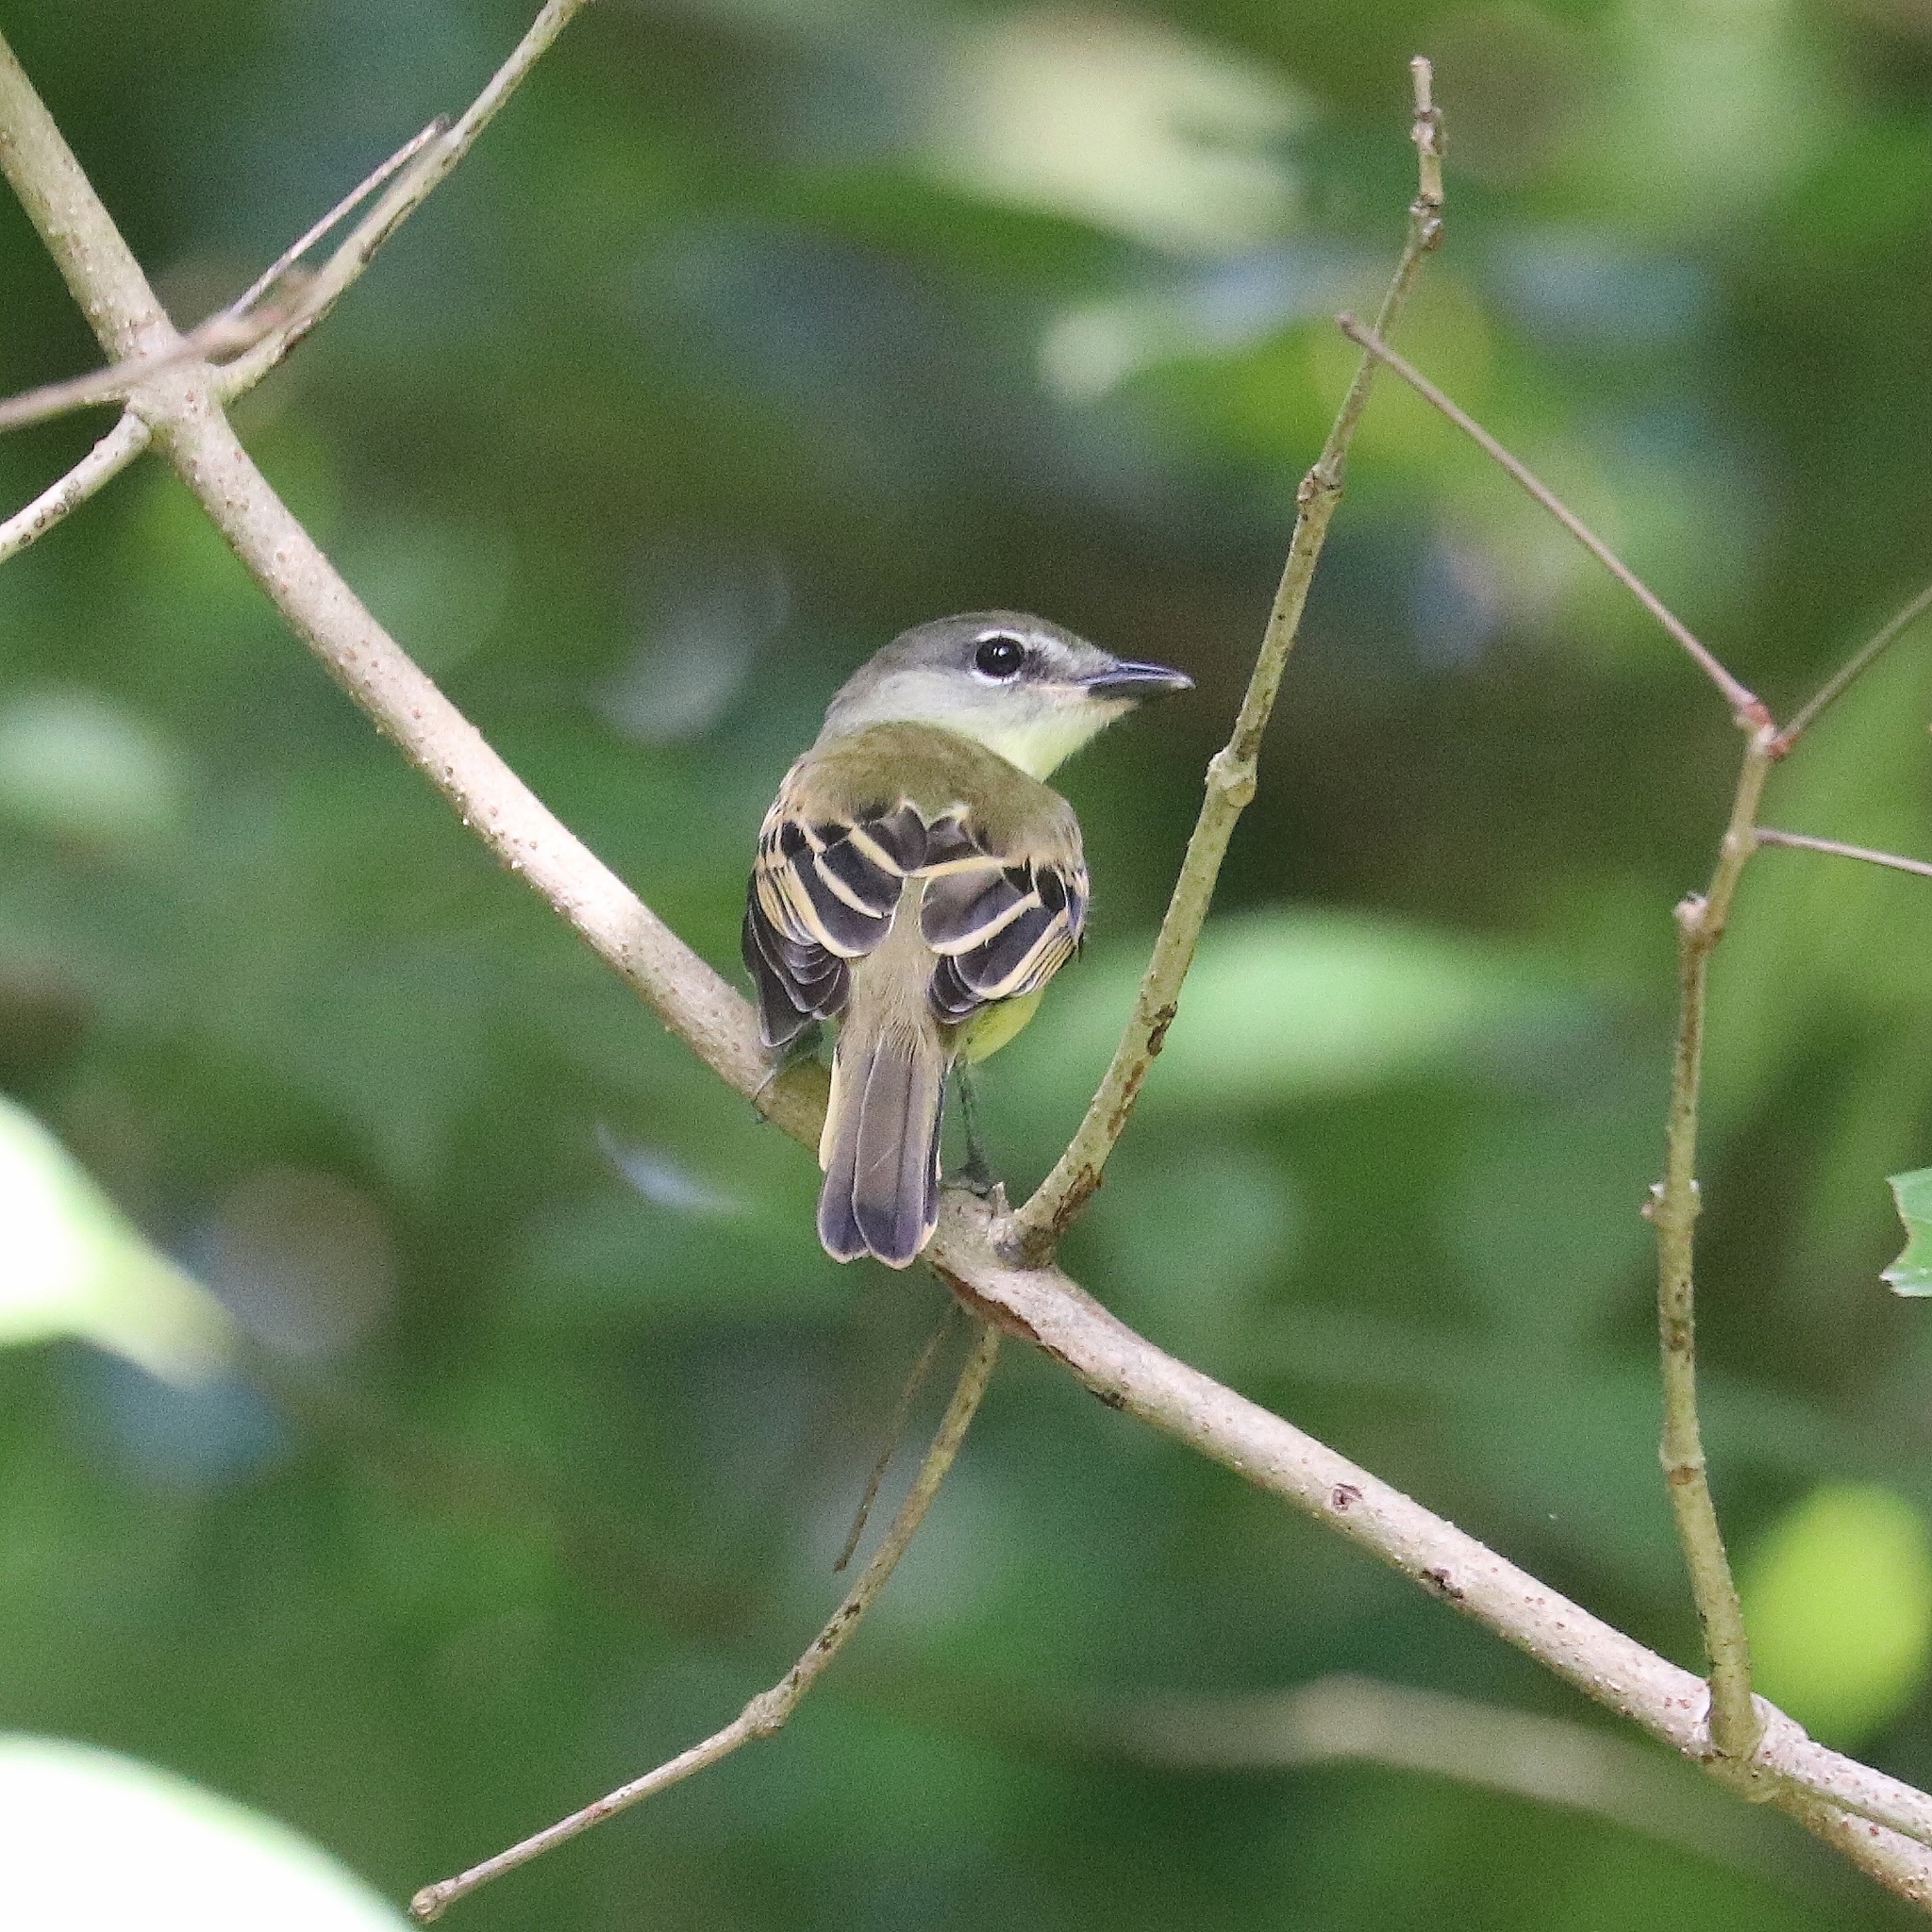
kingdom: Animalia
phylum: Chordata
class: Aves
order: Passeriformes
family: Cotingidae
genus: Pachyramphus
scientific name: Pachyramphus polychopterus
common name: White-winged becard
